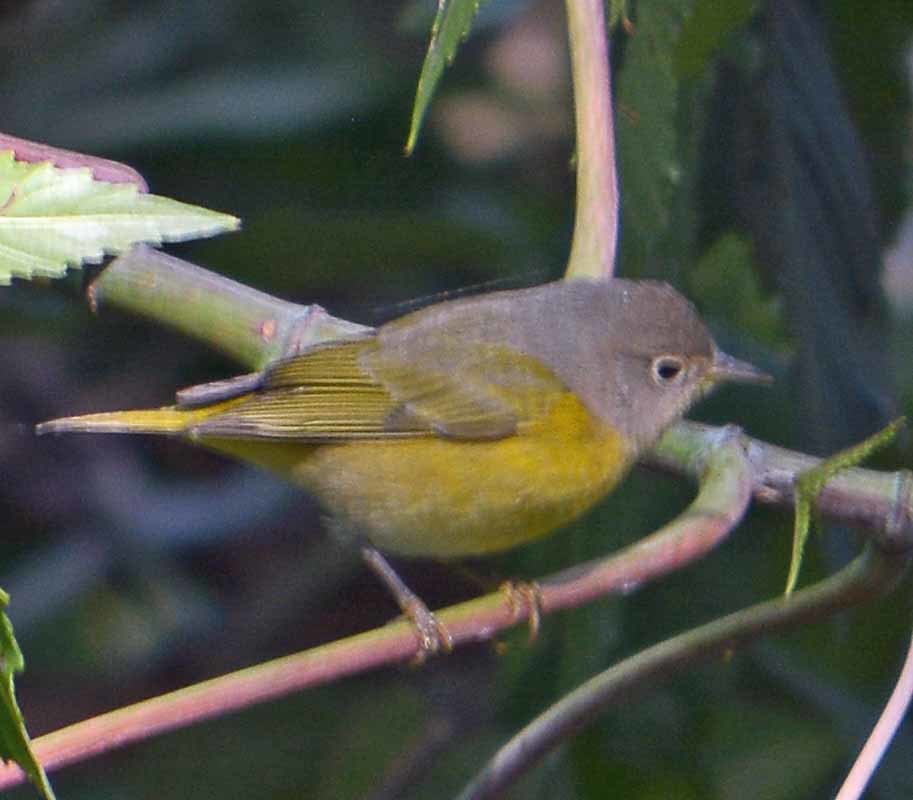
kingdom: Animalia
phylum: Chordata
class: Aves
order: Passeriformes
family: Parulidae
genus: Leiothlypis
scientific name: Leiothlypis ruficapilla
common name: Nashville warbler
